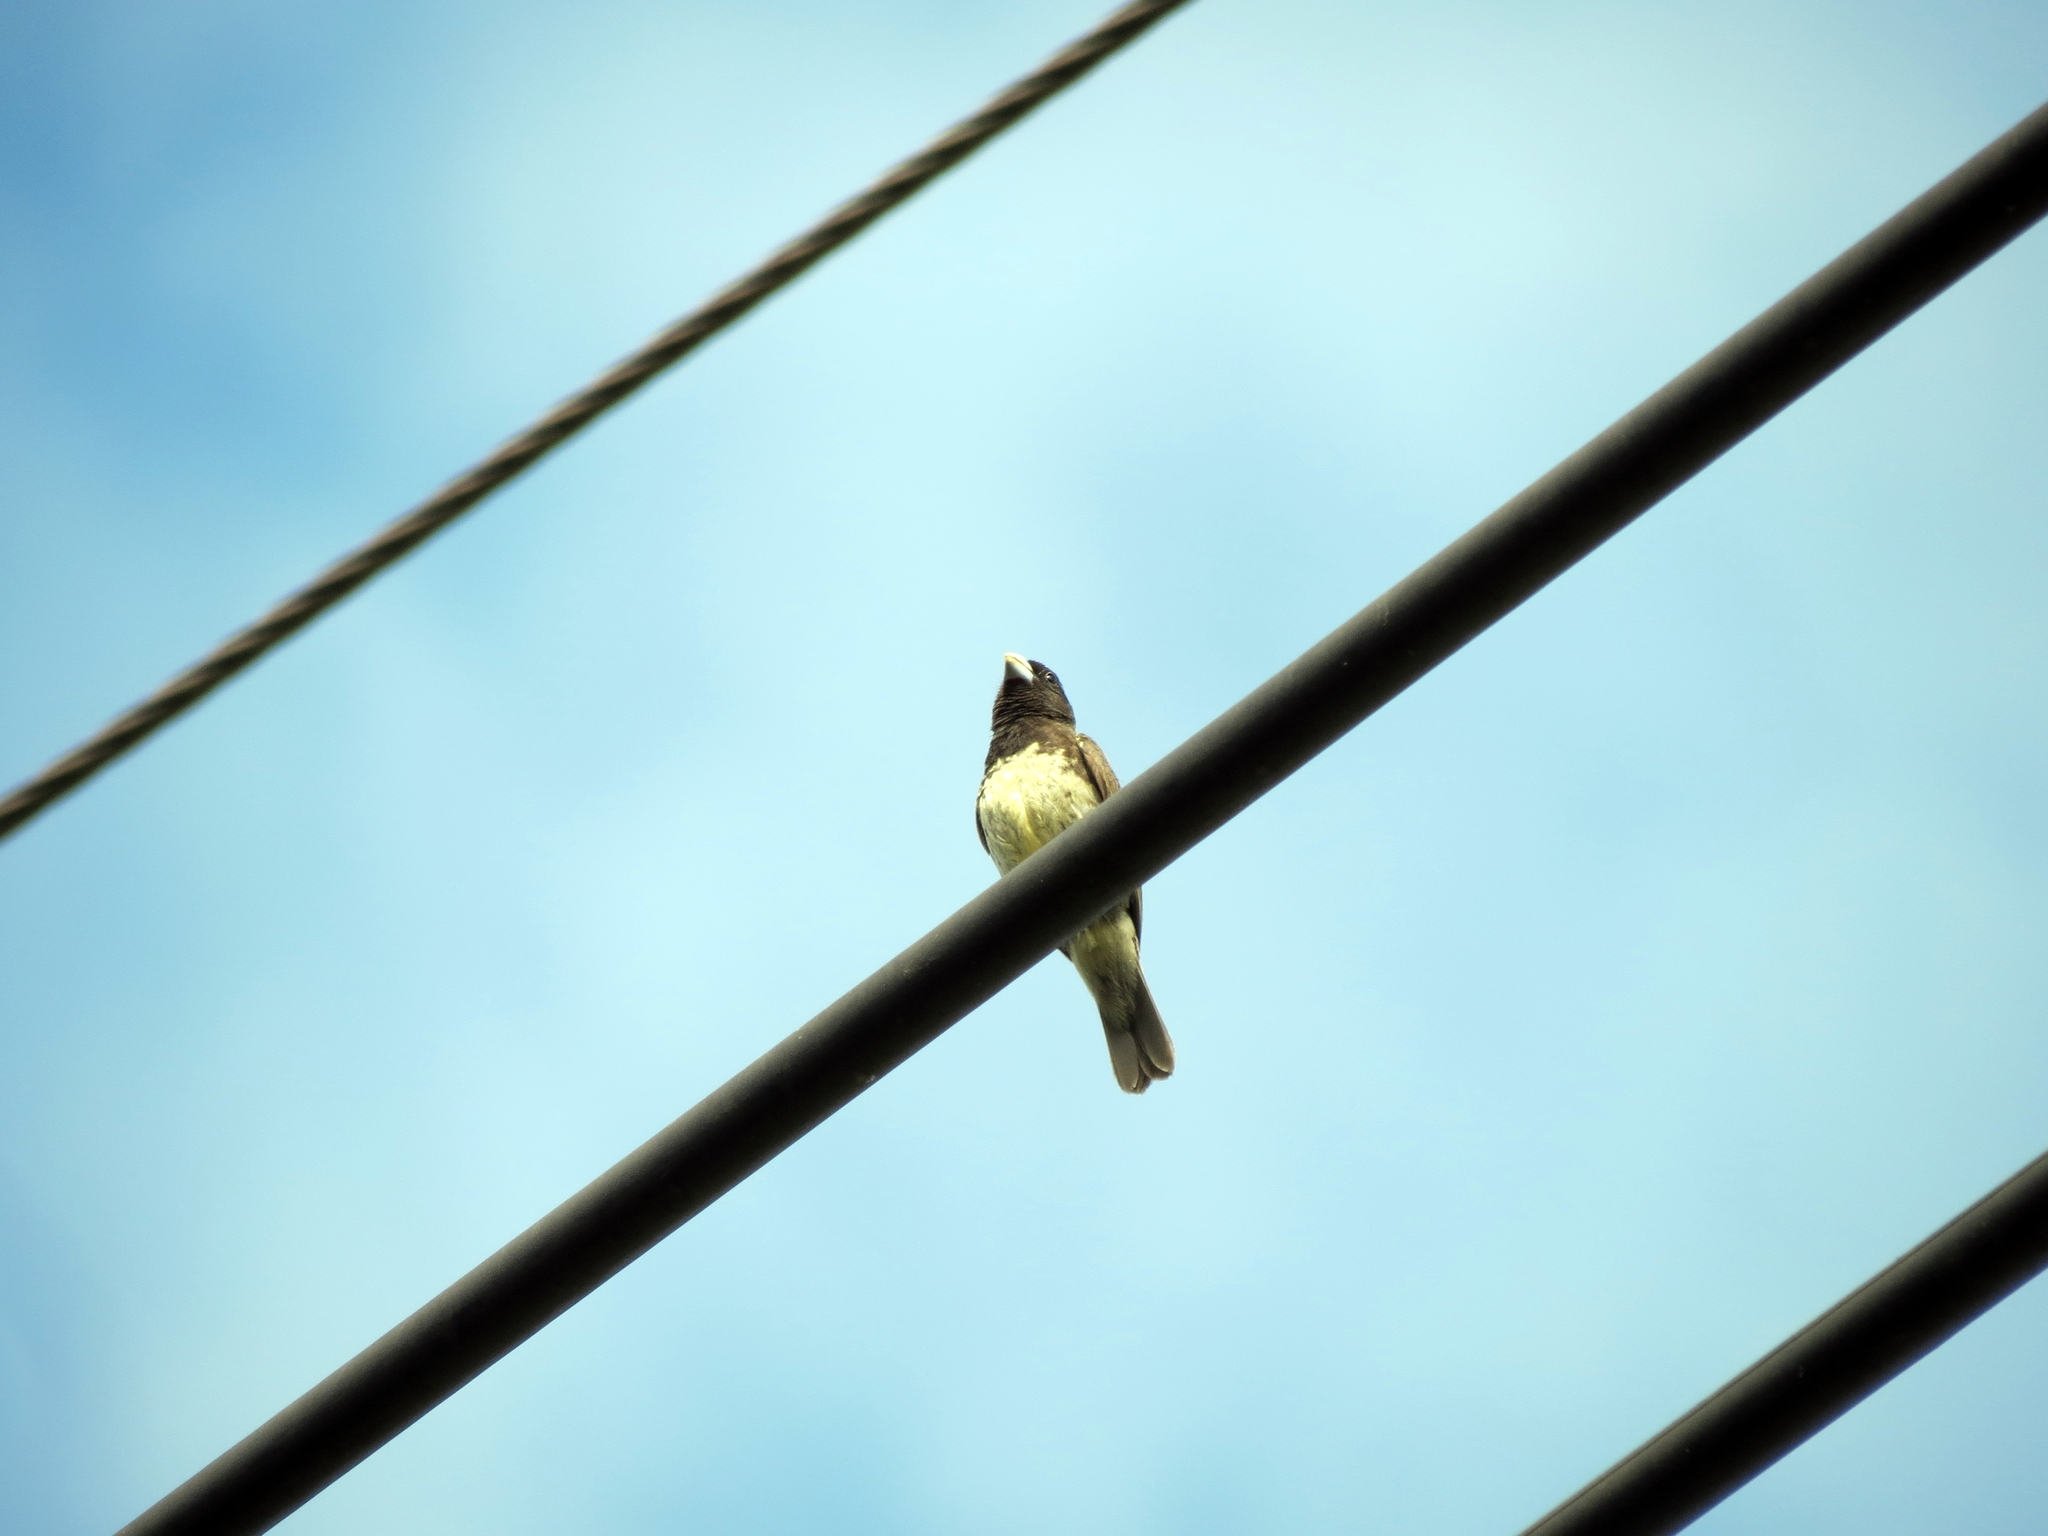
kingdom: Animalia
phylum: Chordata
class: Aves
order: Passeriformes
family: Thraupidae
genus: Sporophila
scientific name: Sporophila nigricollis
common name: Yellow-bellied seedeater
